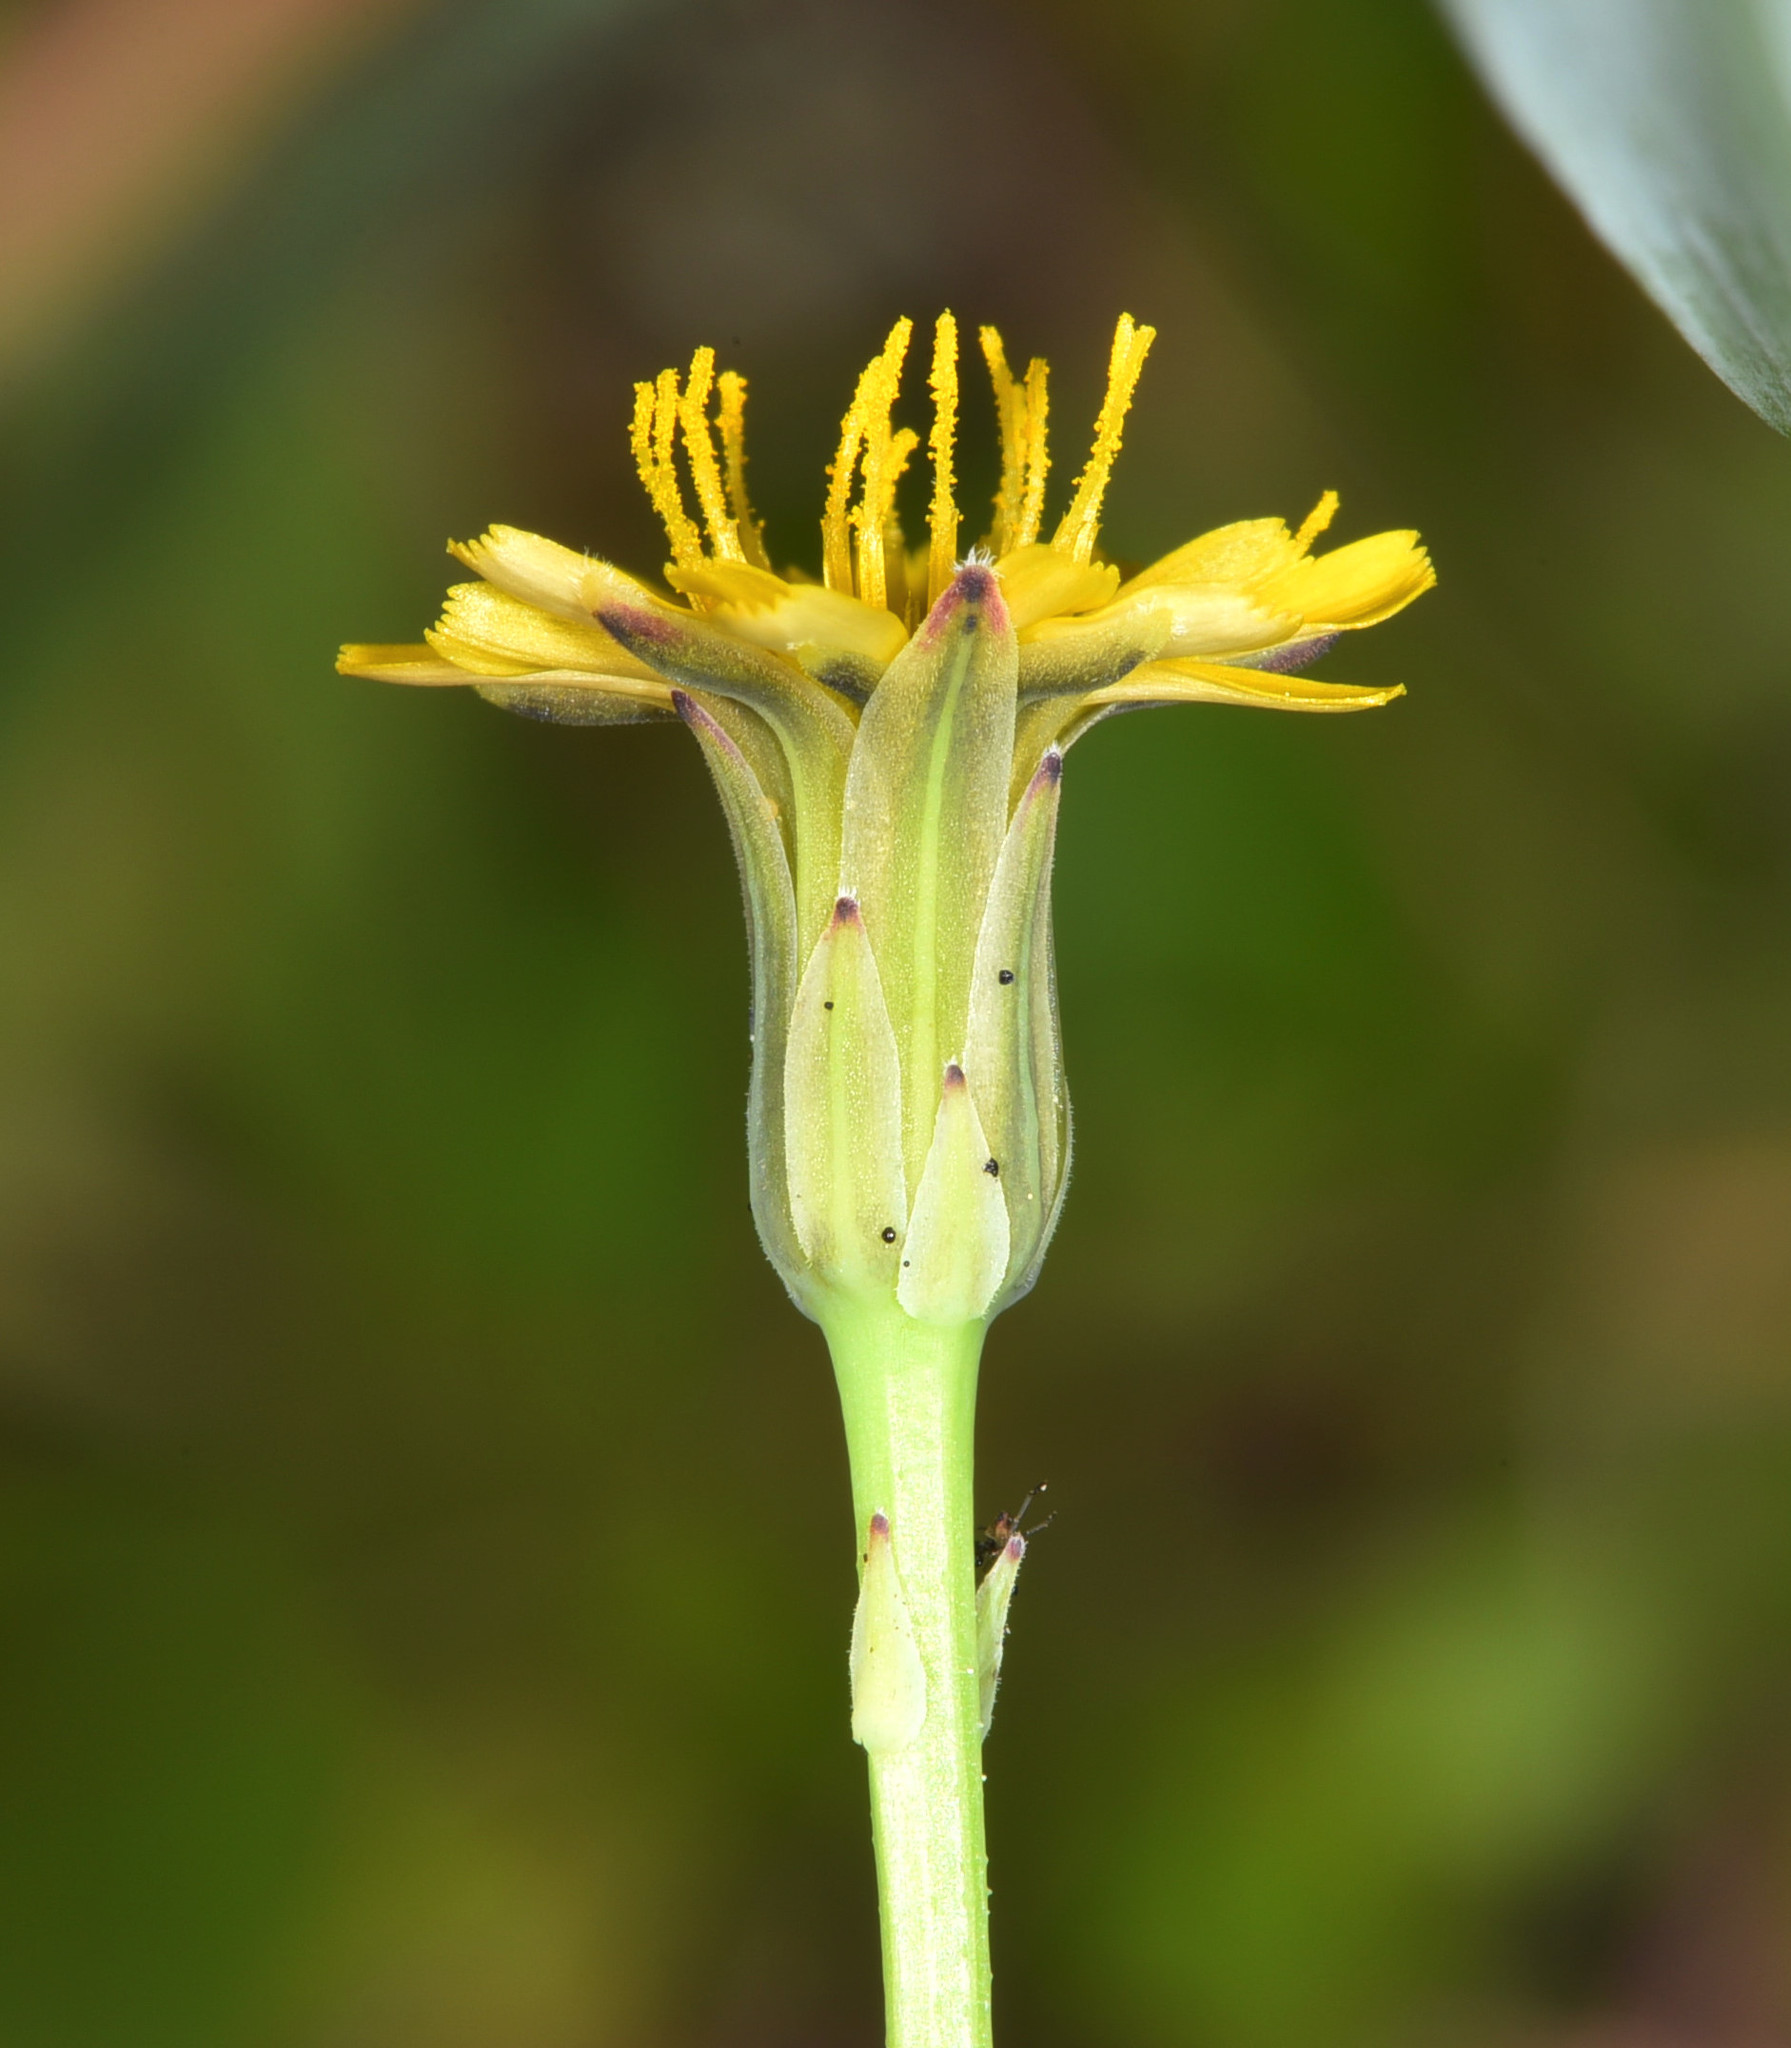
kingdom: Plantae
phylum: Tracheophyta
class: Magnoliopsida
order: Asterales
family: Asteraceae
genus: Microseris
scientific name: Microseris douglasii
